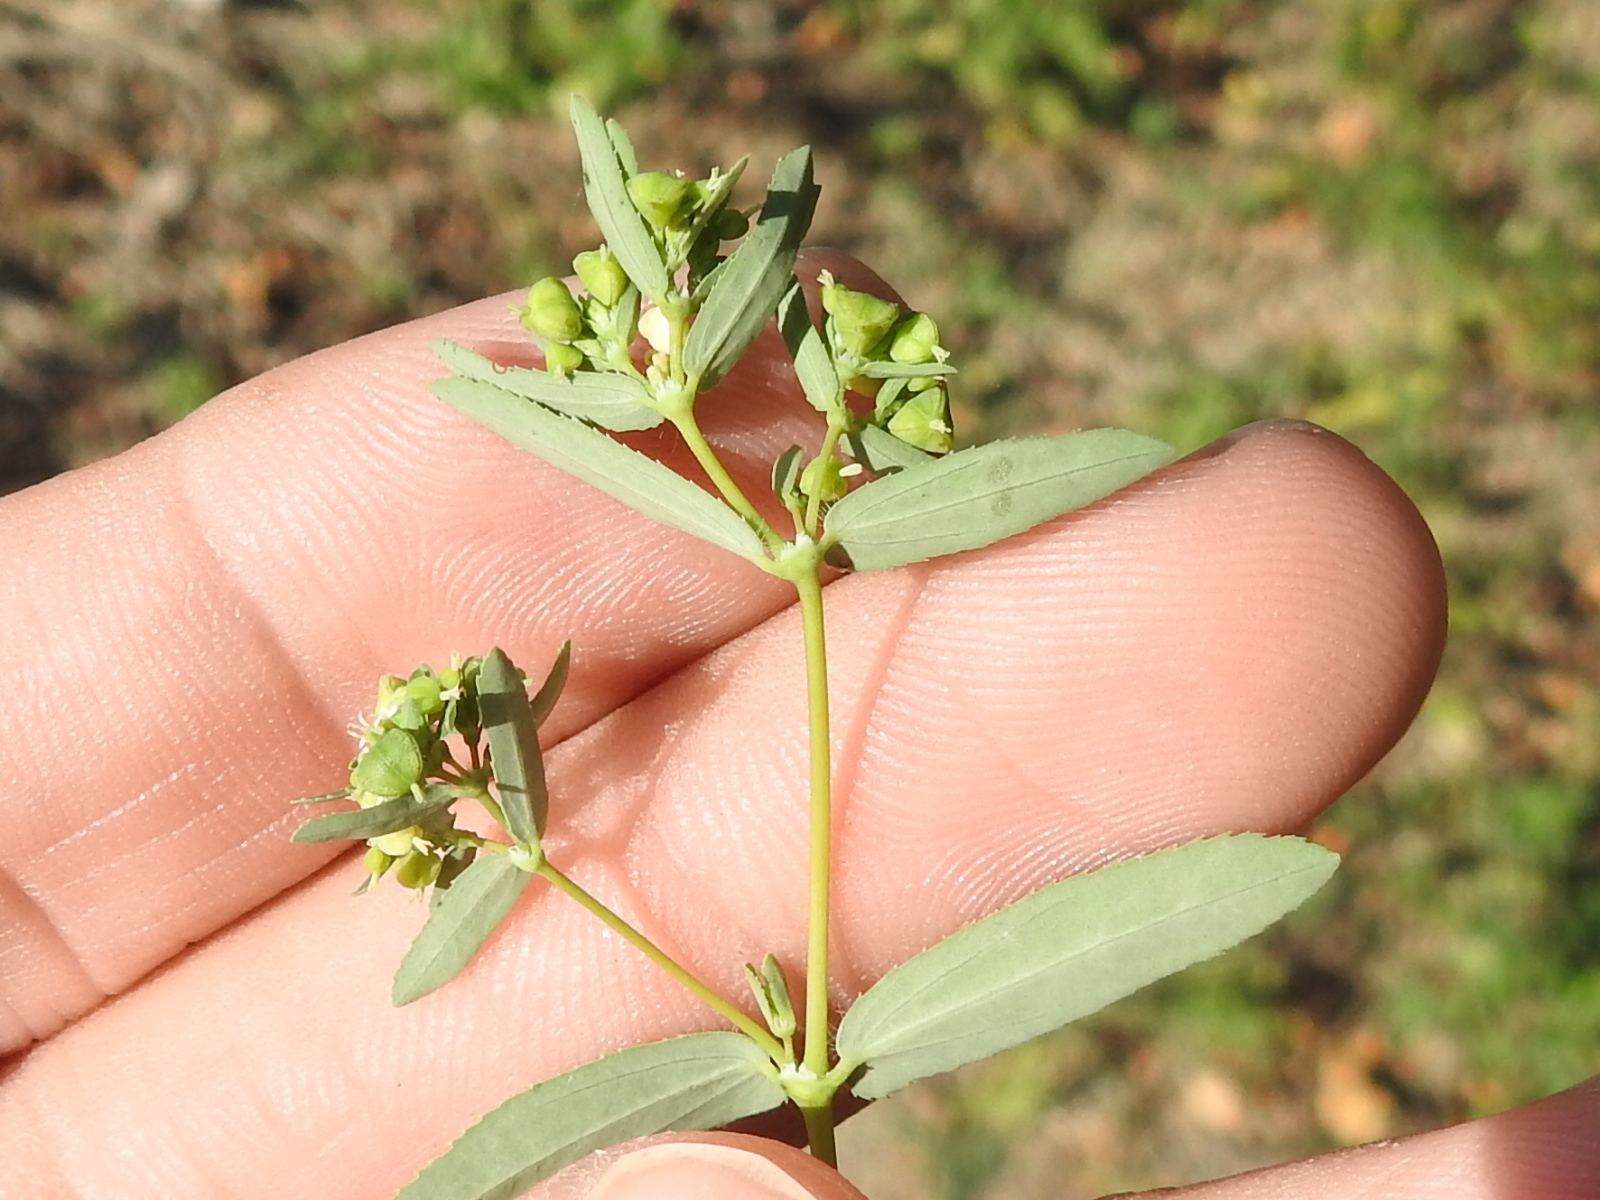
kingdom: Plantae
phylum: Tracheophyta
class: Magnoliopsida
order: Malpighiales
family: Euphorbiaceae
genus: Euphorbia
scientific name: Euphorbia nutans
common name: Eyebane
